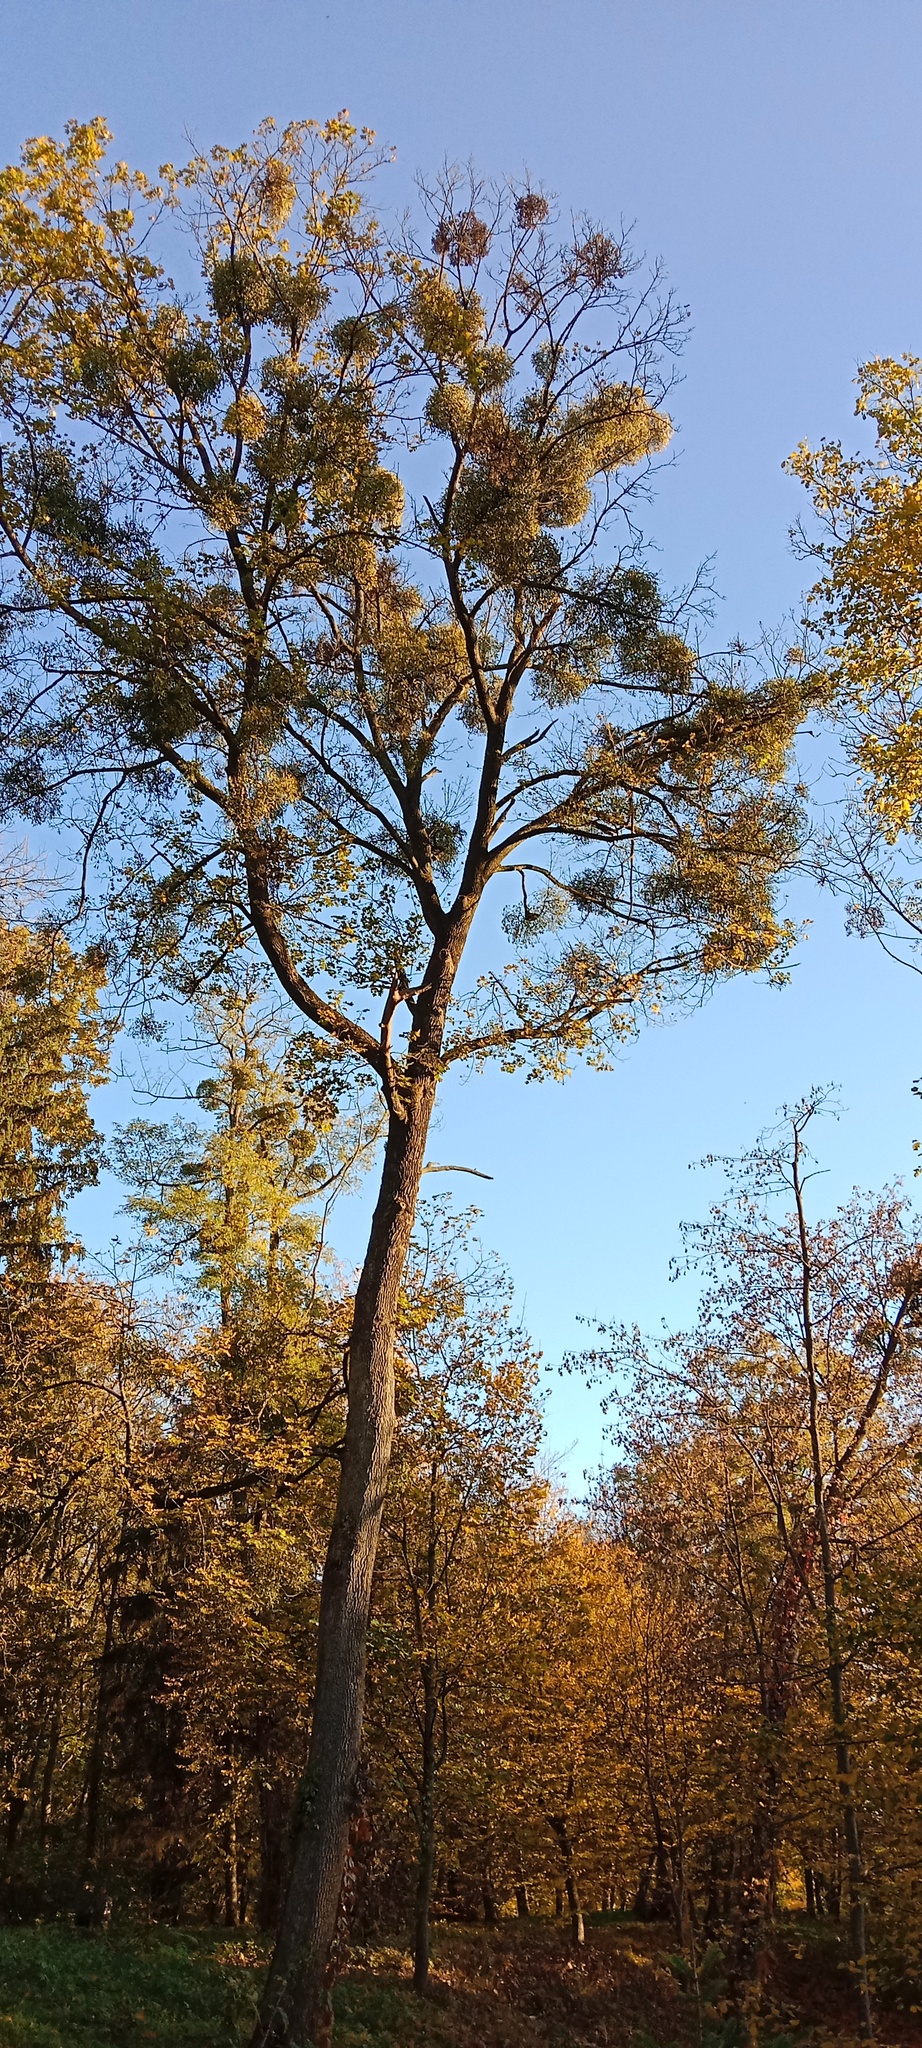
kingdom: Plantae
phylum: Tracheophyta
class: Magnoliopsida
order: Santalales
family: Viscaceae
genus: Viscum
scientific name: Viscum album
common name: Mistletoe
